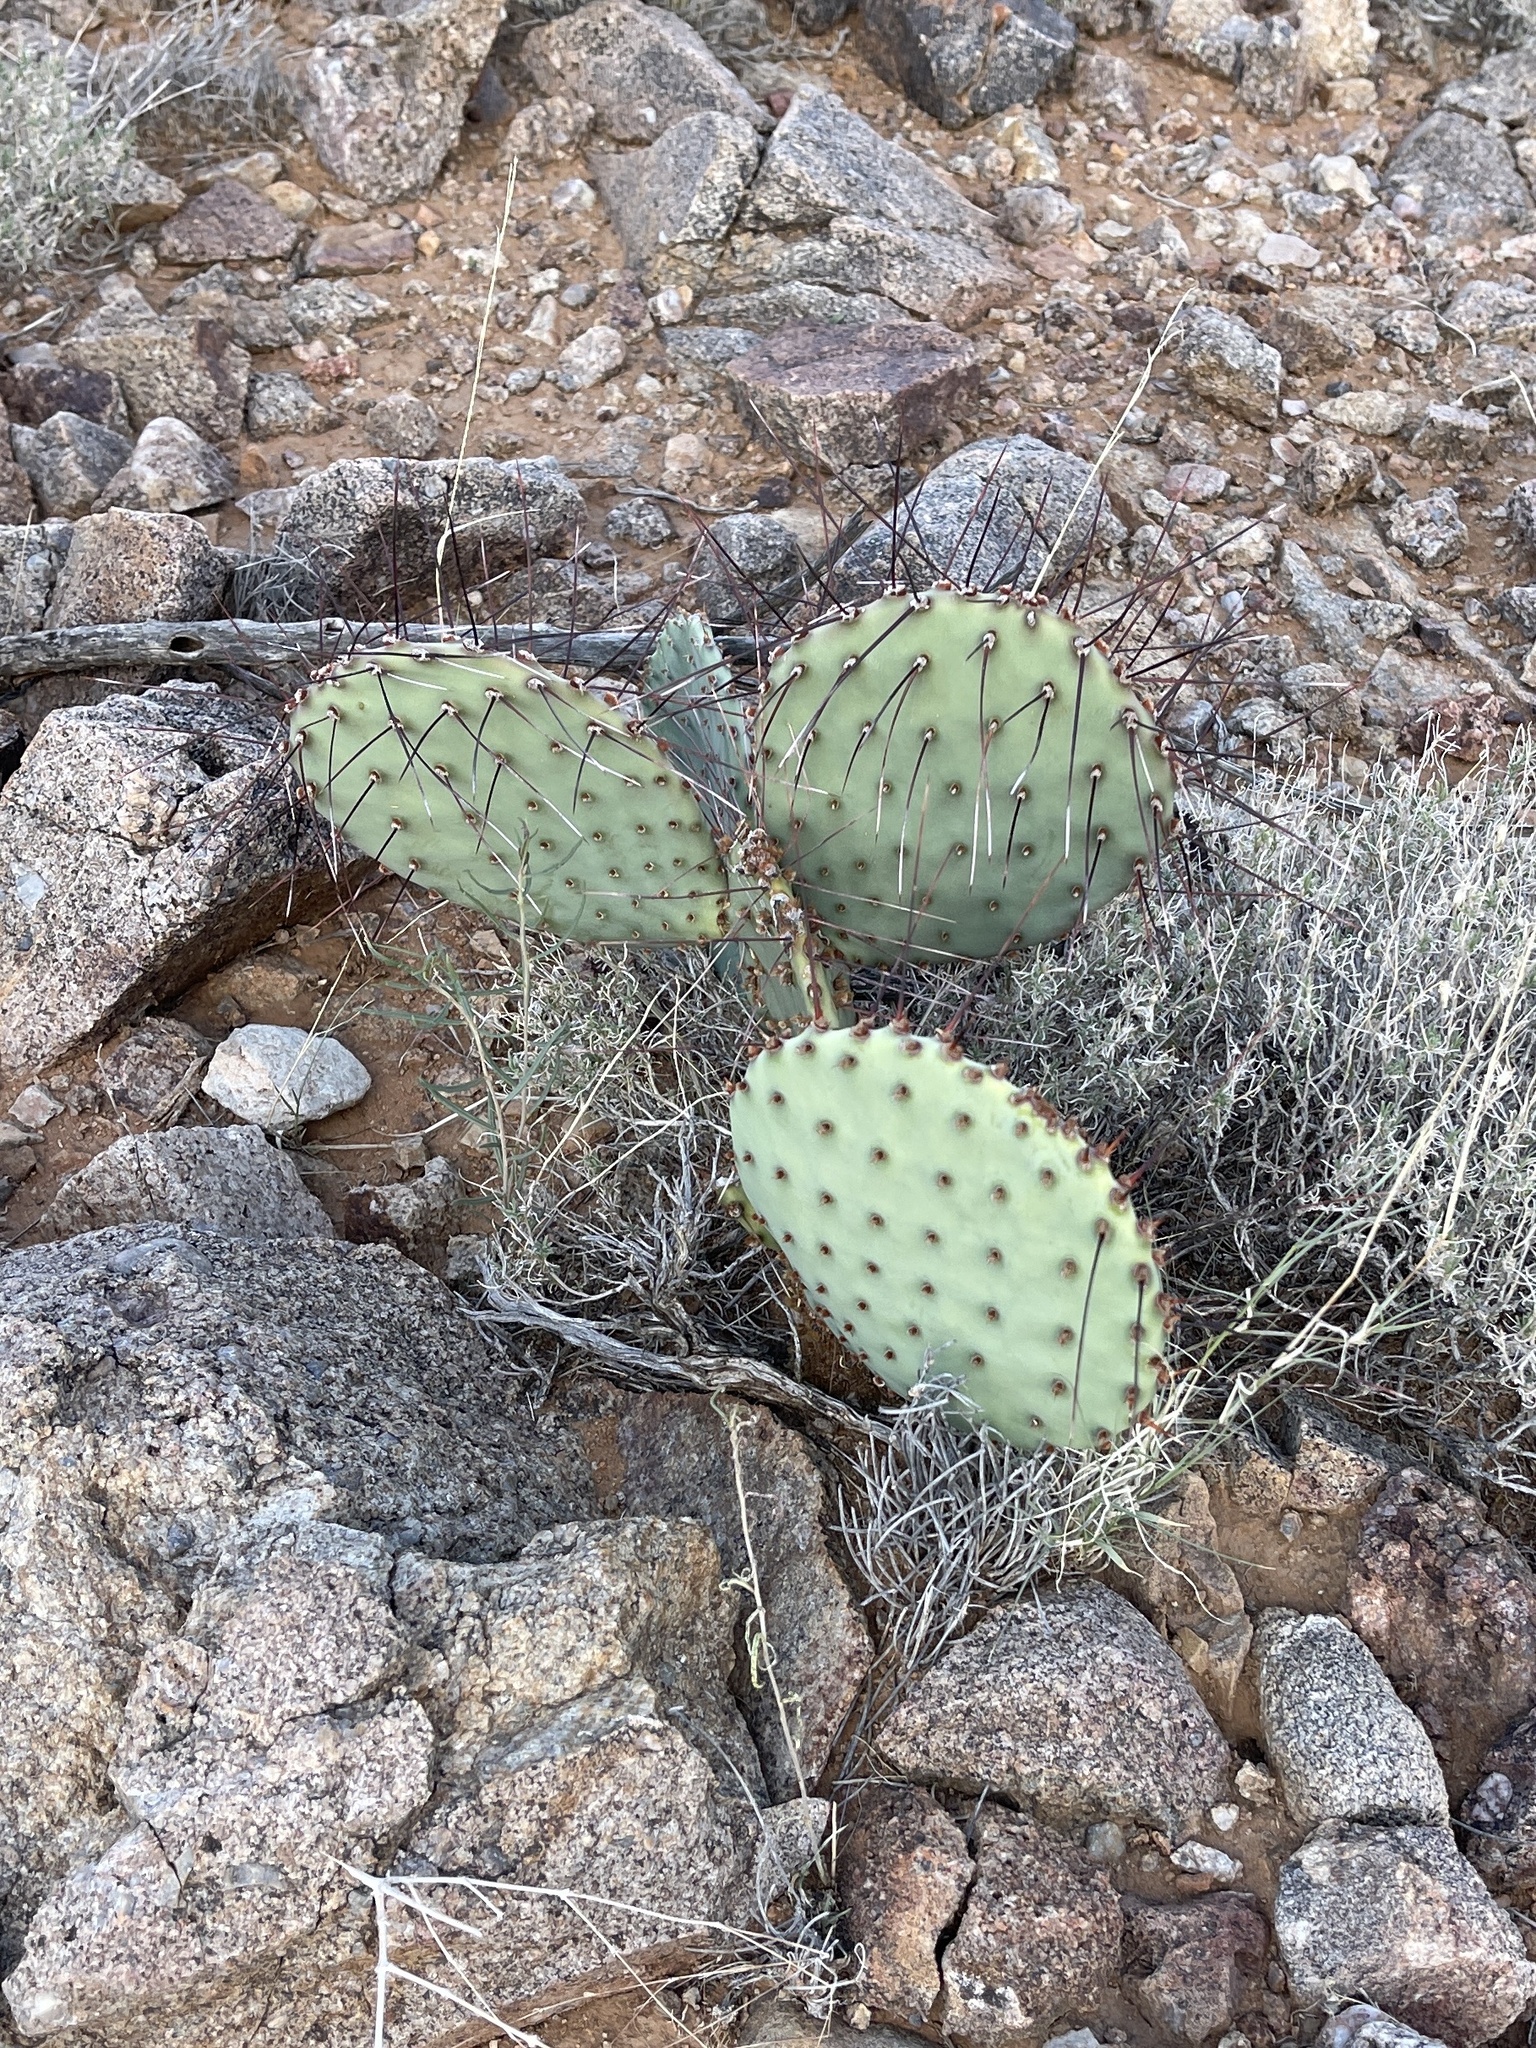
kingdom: Plantae
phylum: Tracheophyta
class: Magnoliopsida
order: Caryophyllales
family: Cactaceae
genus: Opuntia
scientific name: Opuntia macrocentra
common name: Purple prickly-pear
